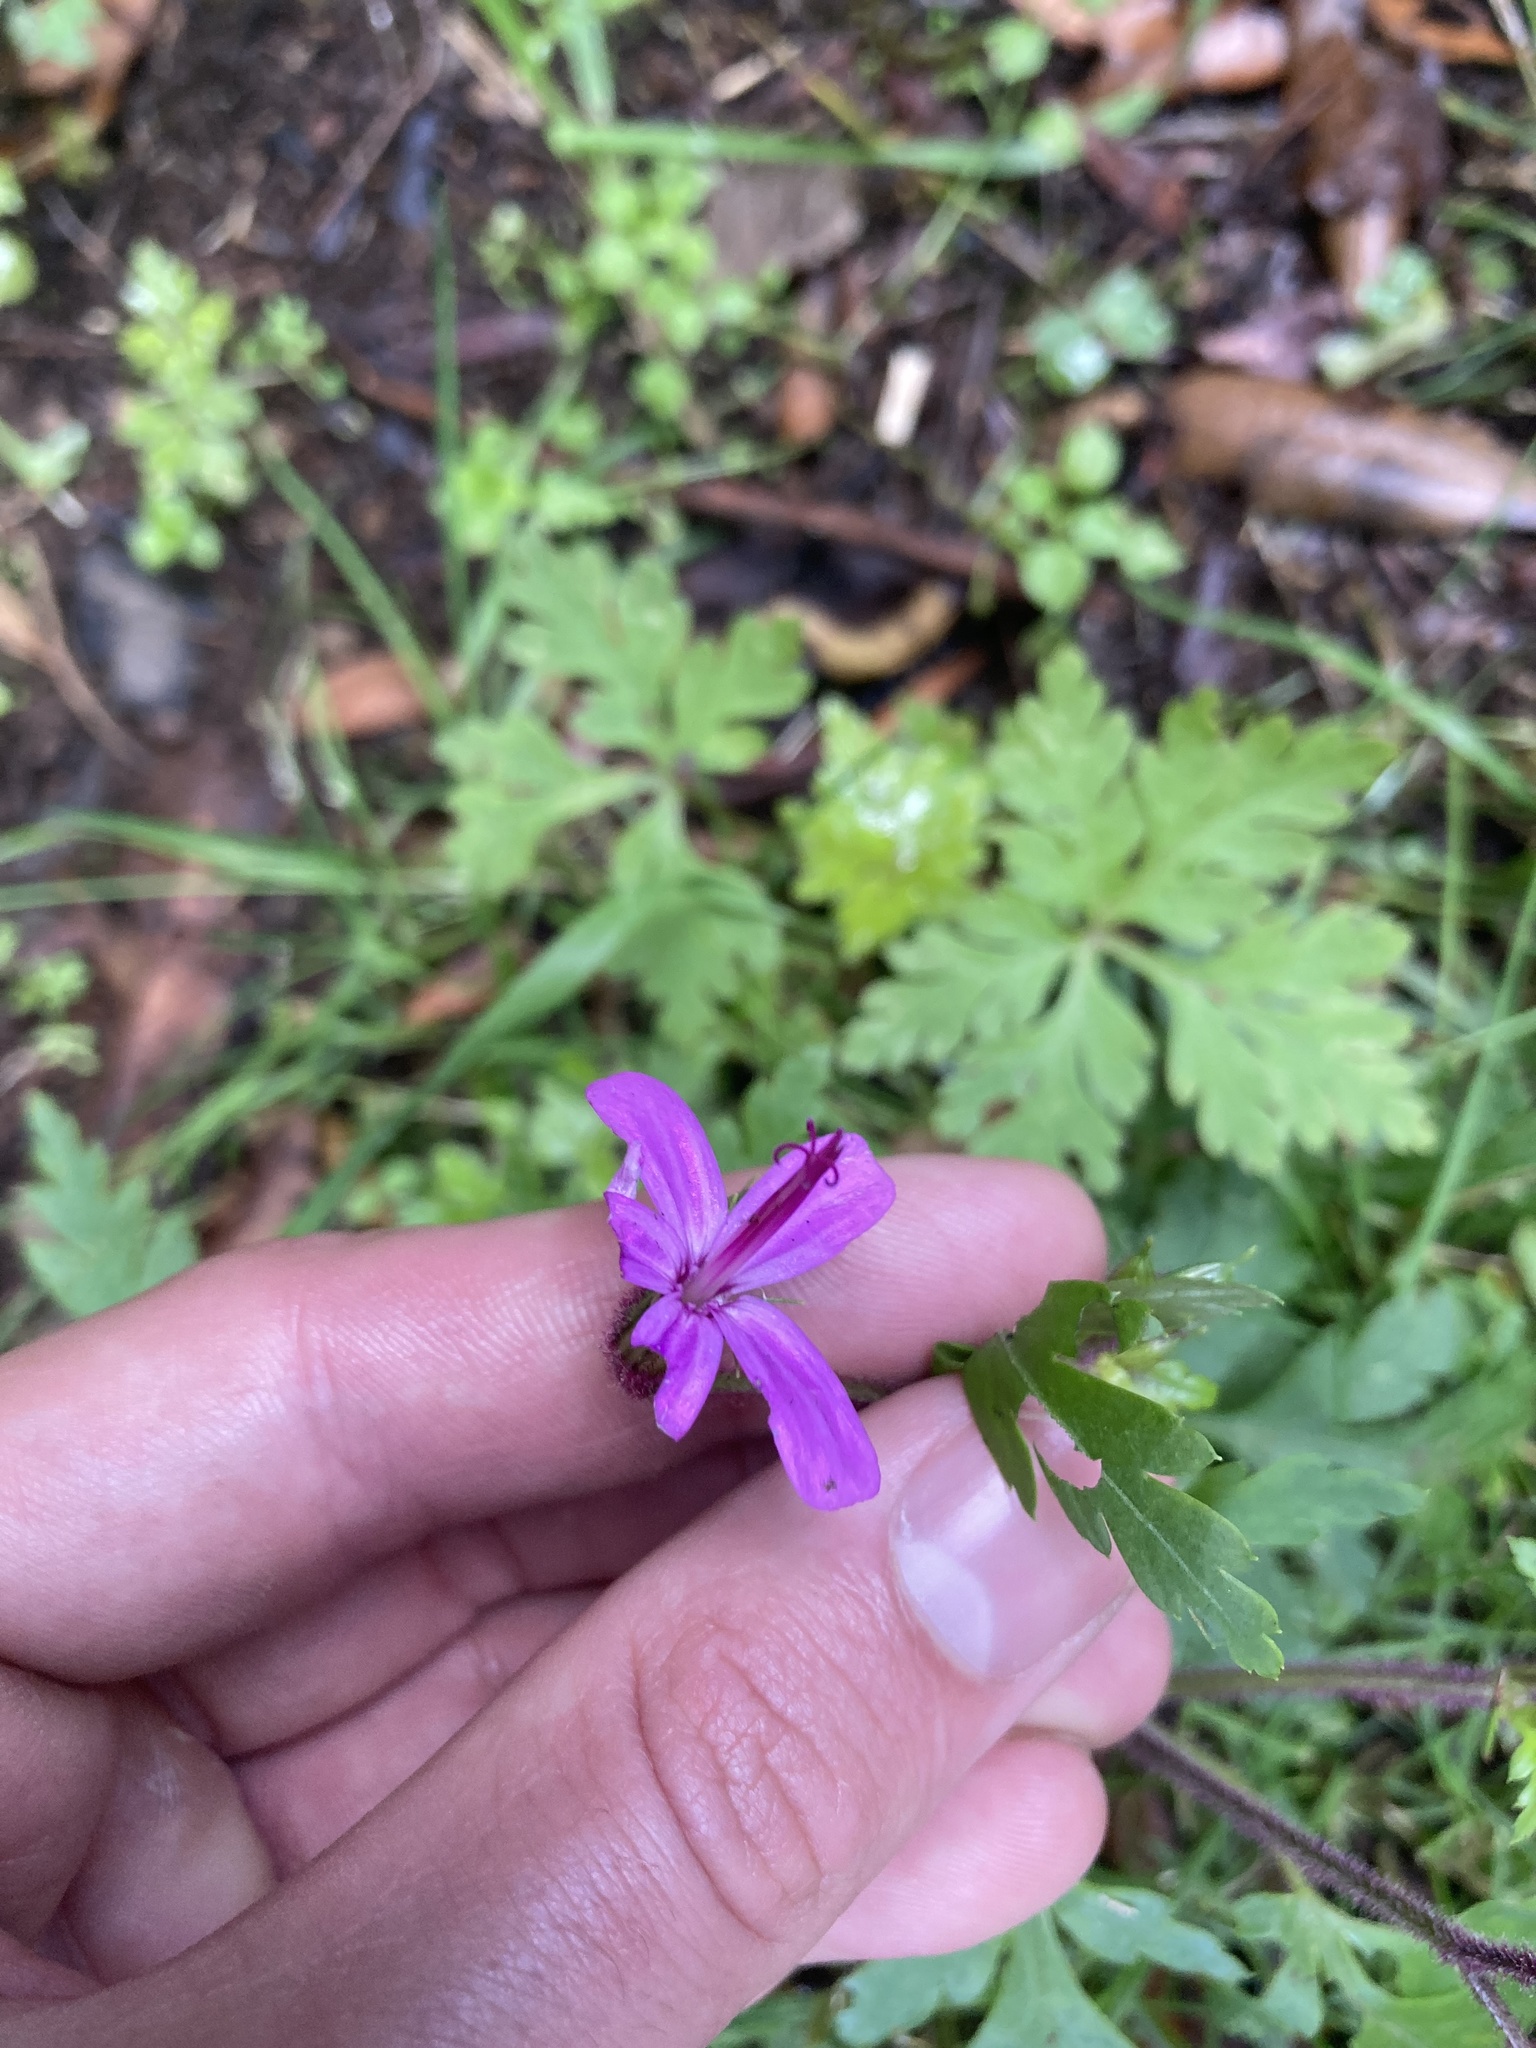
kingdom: Plantae
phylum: Tracheophyta
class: Magnoliopsida
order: Geraniales
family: Geraniaceae
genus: Geranium
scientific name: Geranium reuteri
